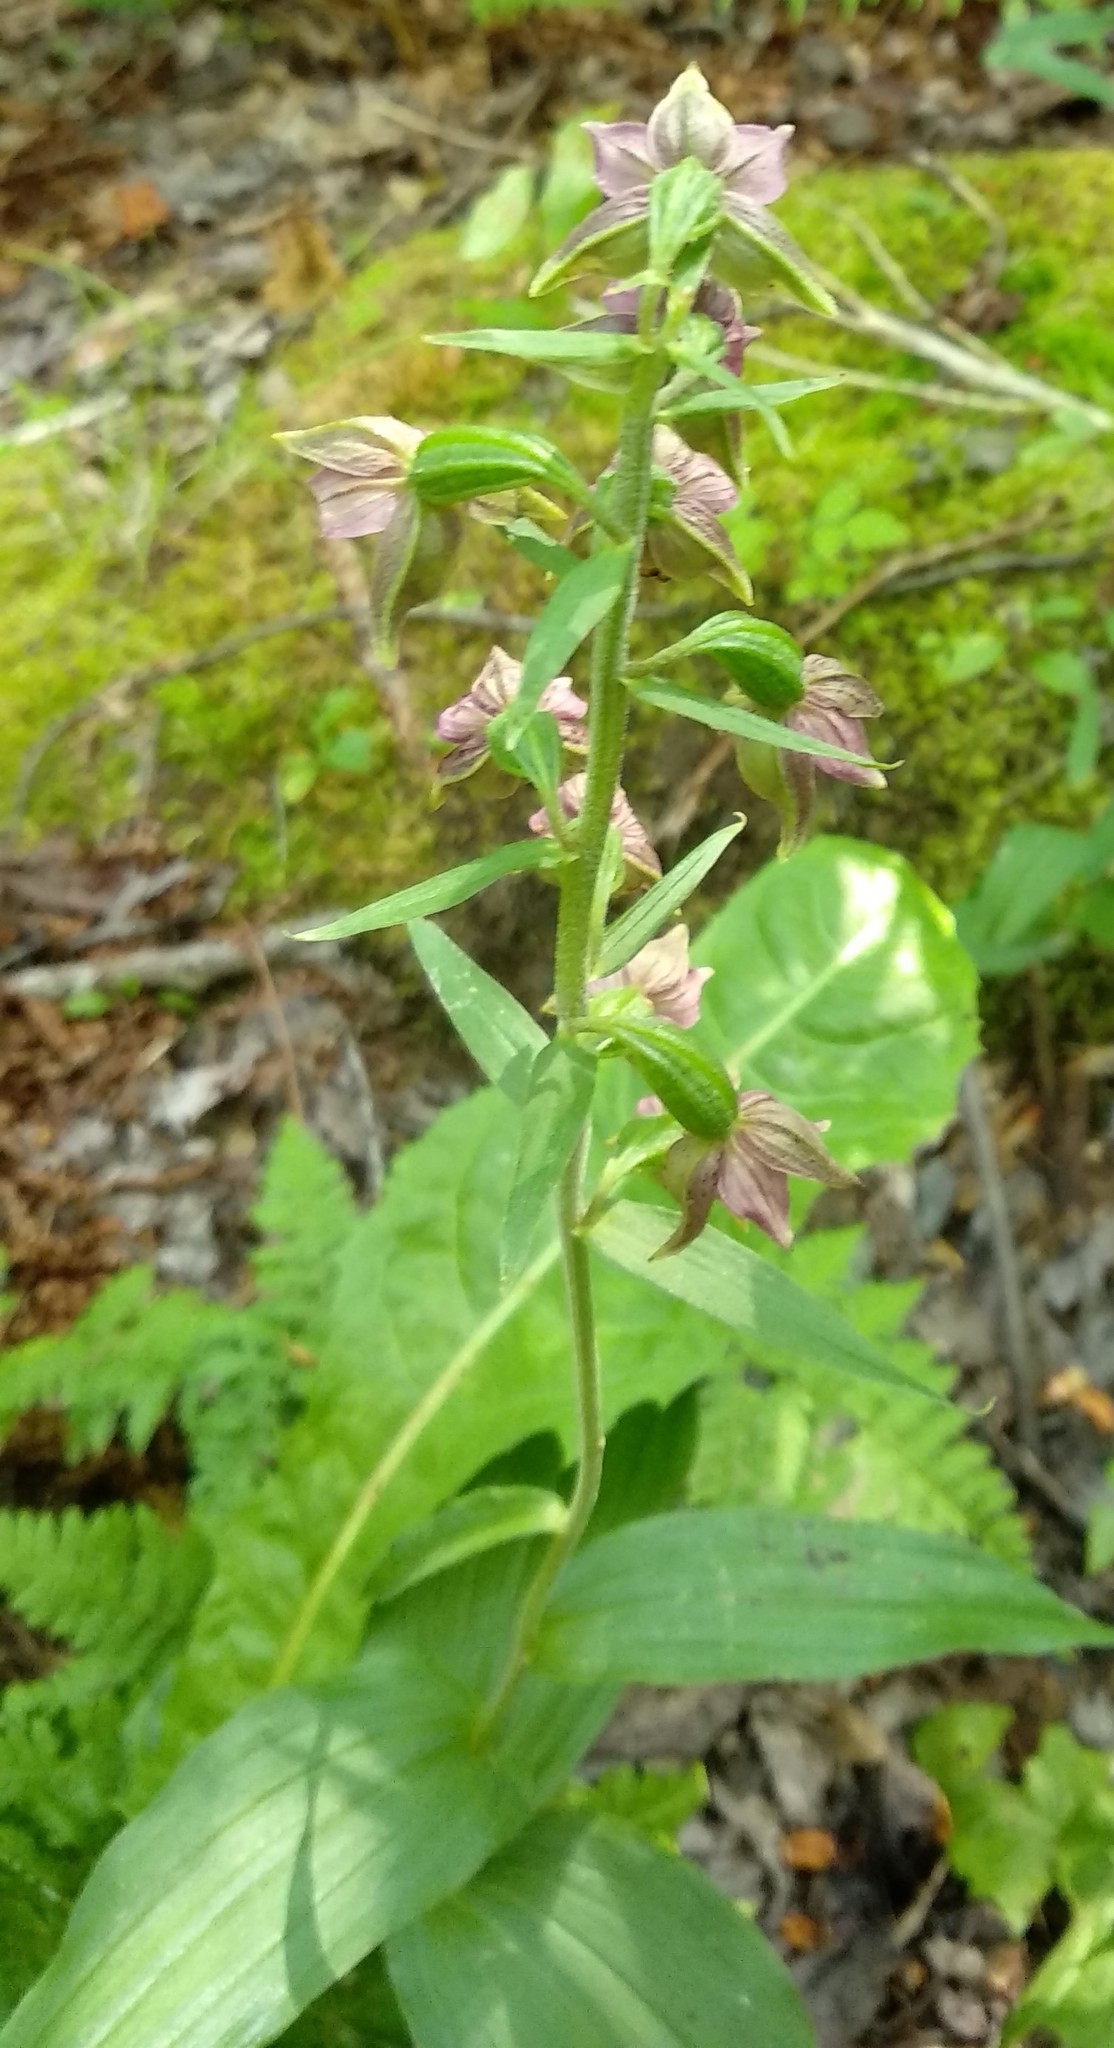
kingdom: Plantae
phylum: Tracheophyta
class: Liliopsida
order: Asparagales
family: Orchidaceae
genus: Epipactis
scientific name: Epipactis helleborine
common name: Broad-leaved helleborine
